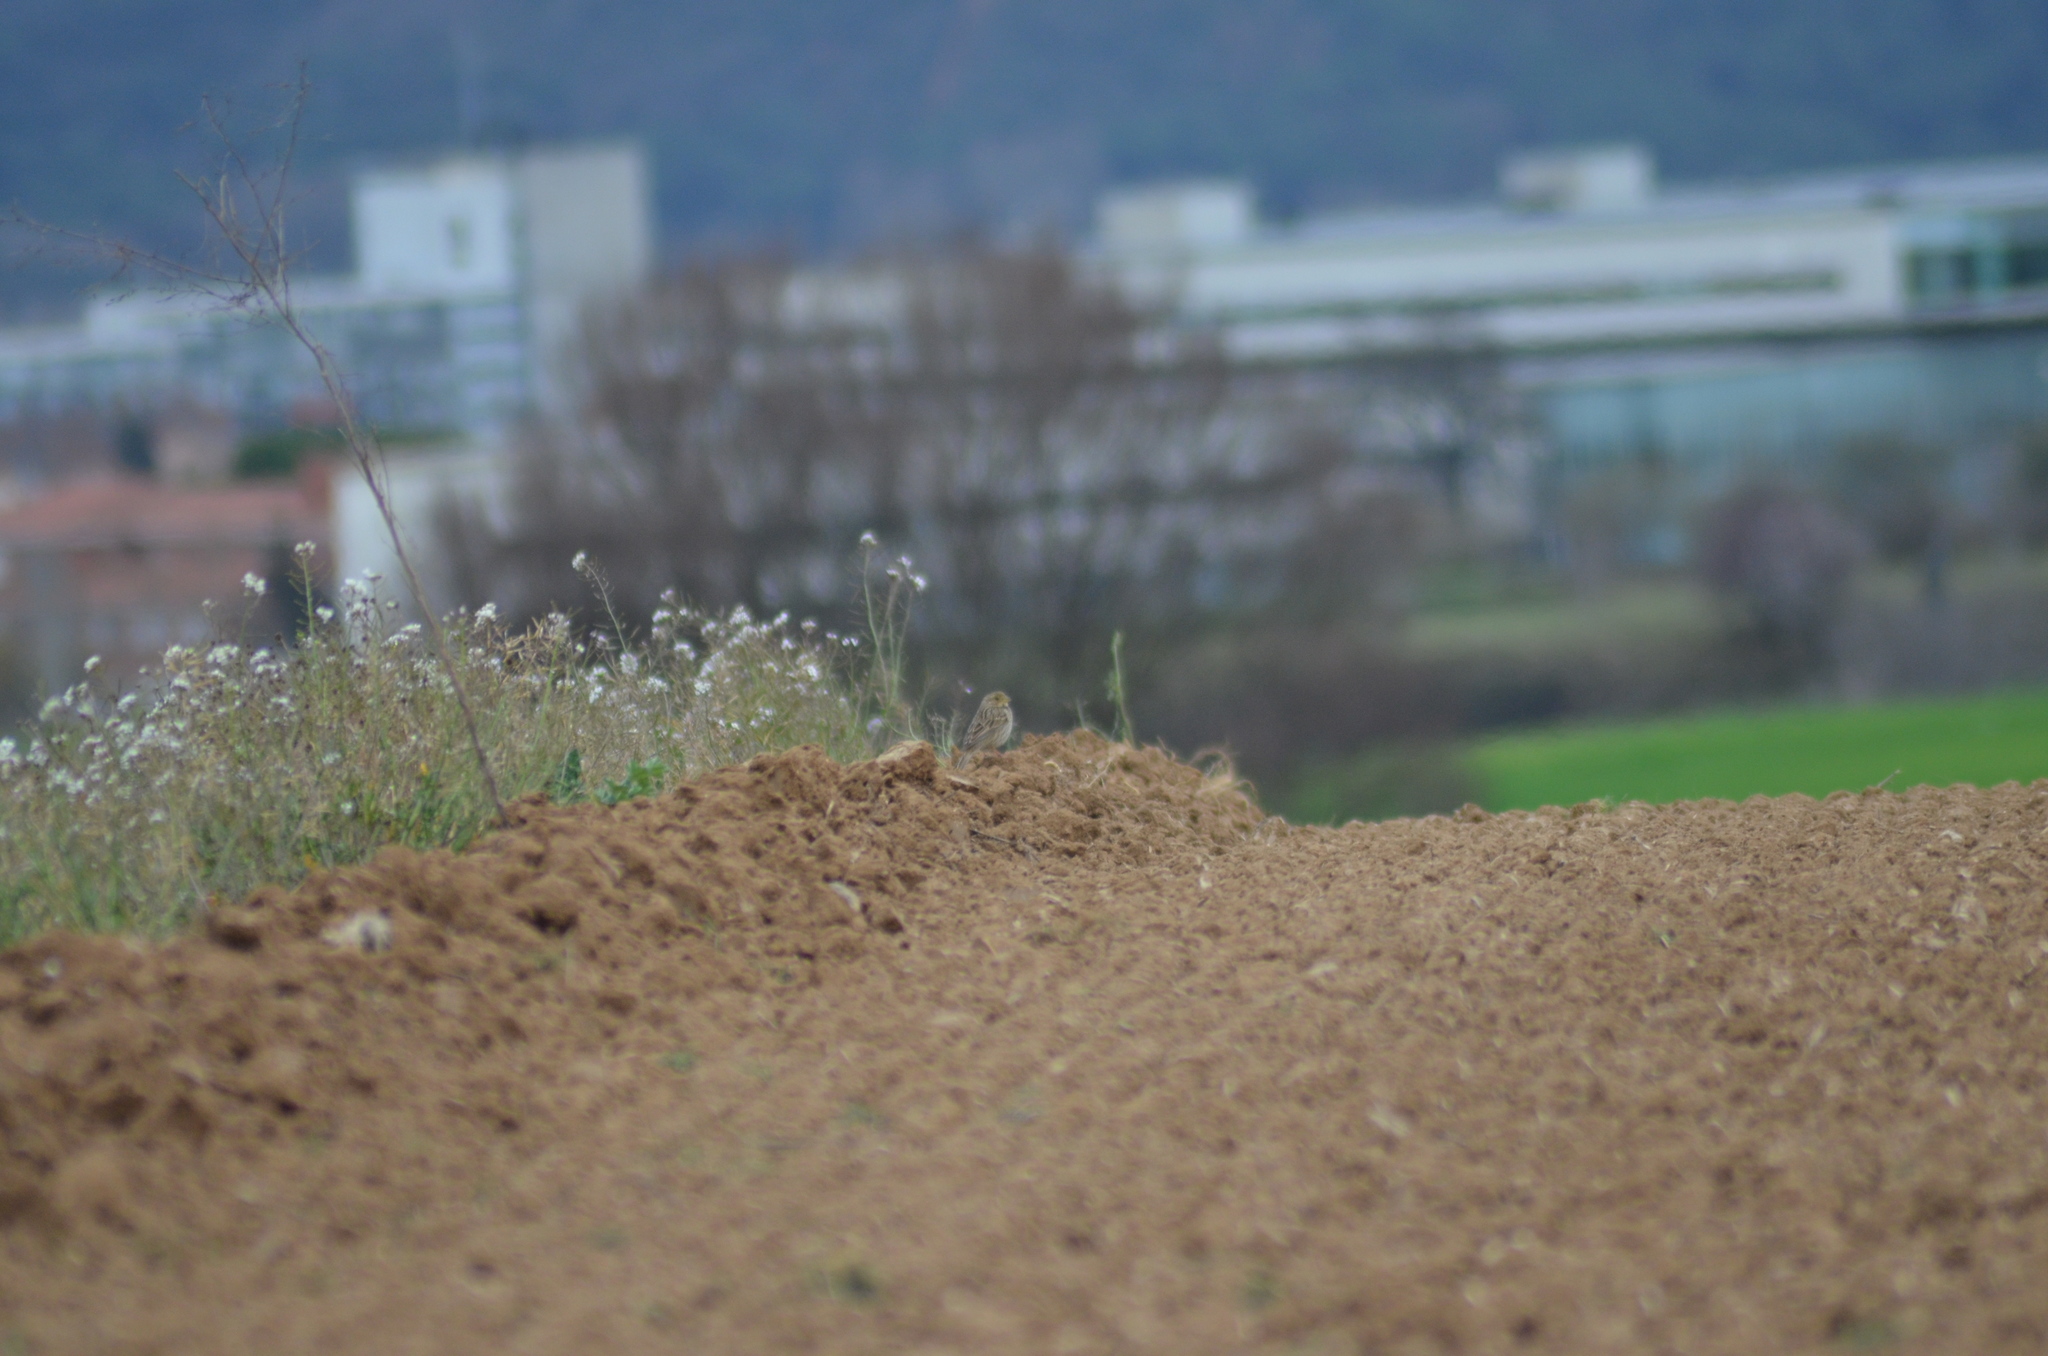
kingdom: Animalia
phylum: Chordata
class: Aves
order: Passeriformes
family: Emberizidae
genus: Emberiza
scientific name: Emberiza calandra
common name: Corn bunting
